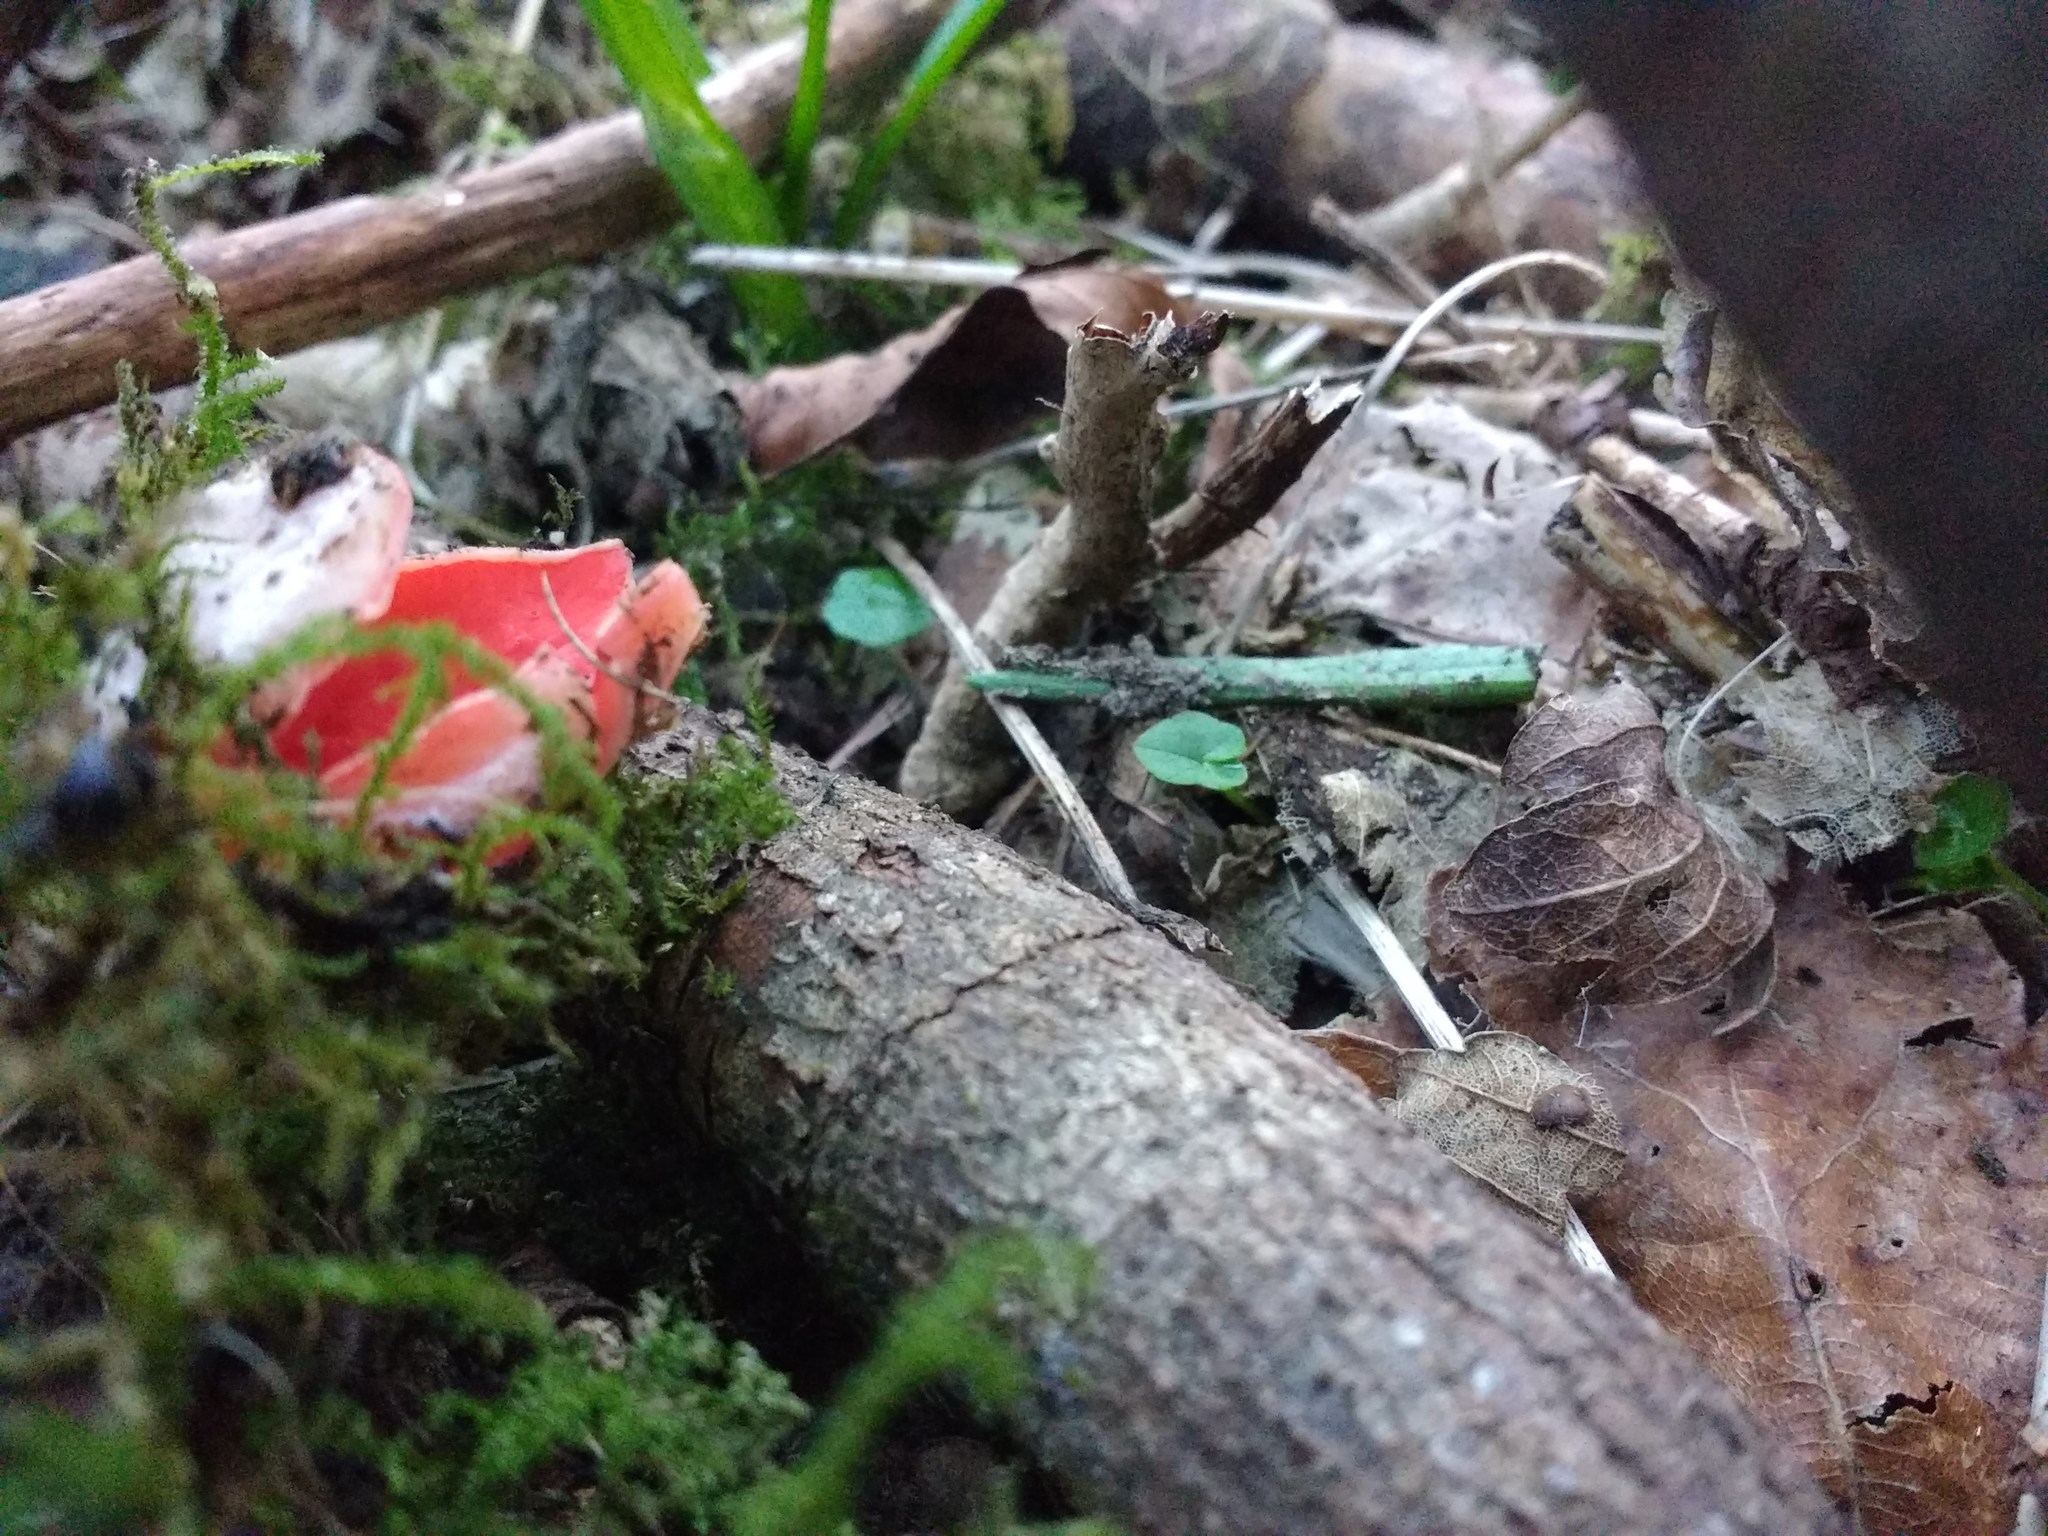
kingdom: Fungi
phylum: Ascomycota
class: Pezizomycetes
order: Pezizales
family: Sarcoscyphaceae
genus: Sarcoscypha
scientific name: Sarcoscypha
